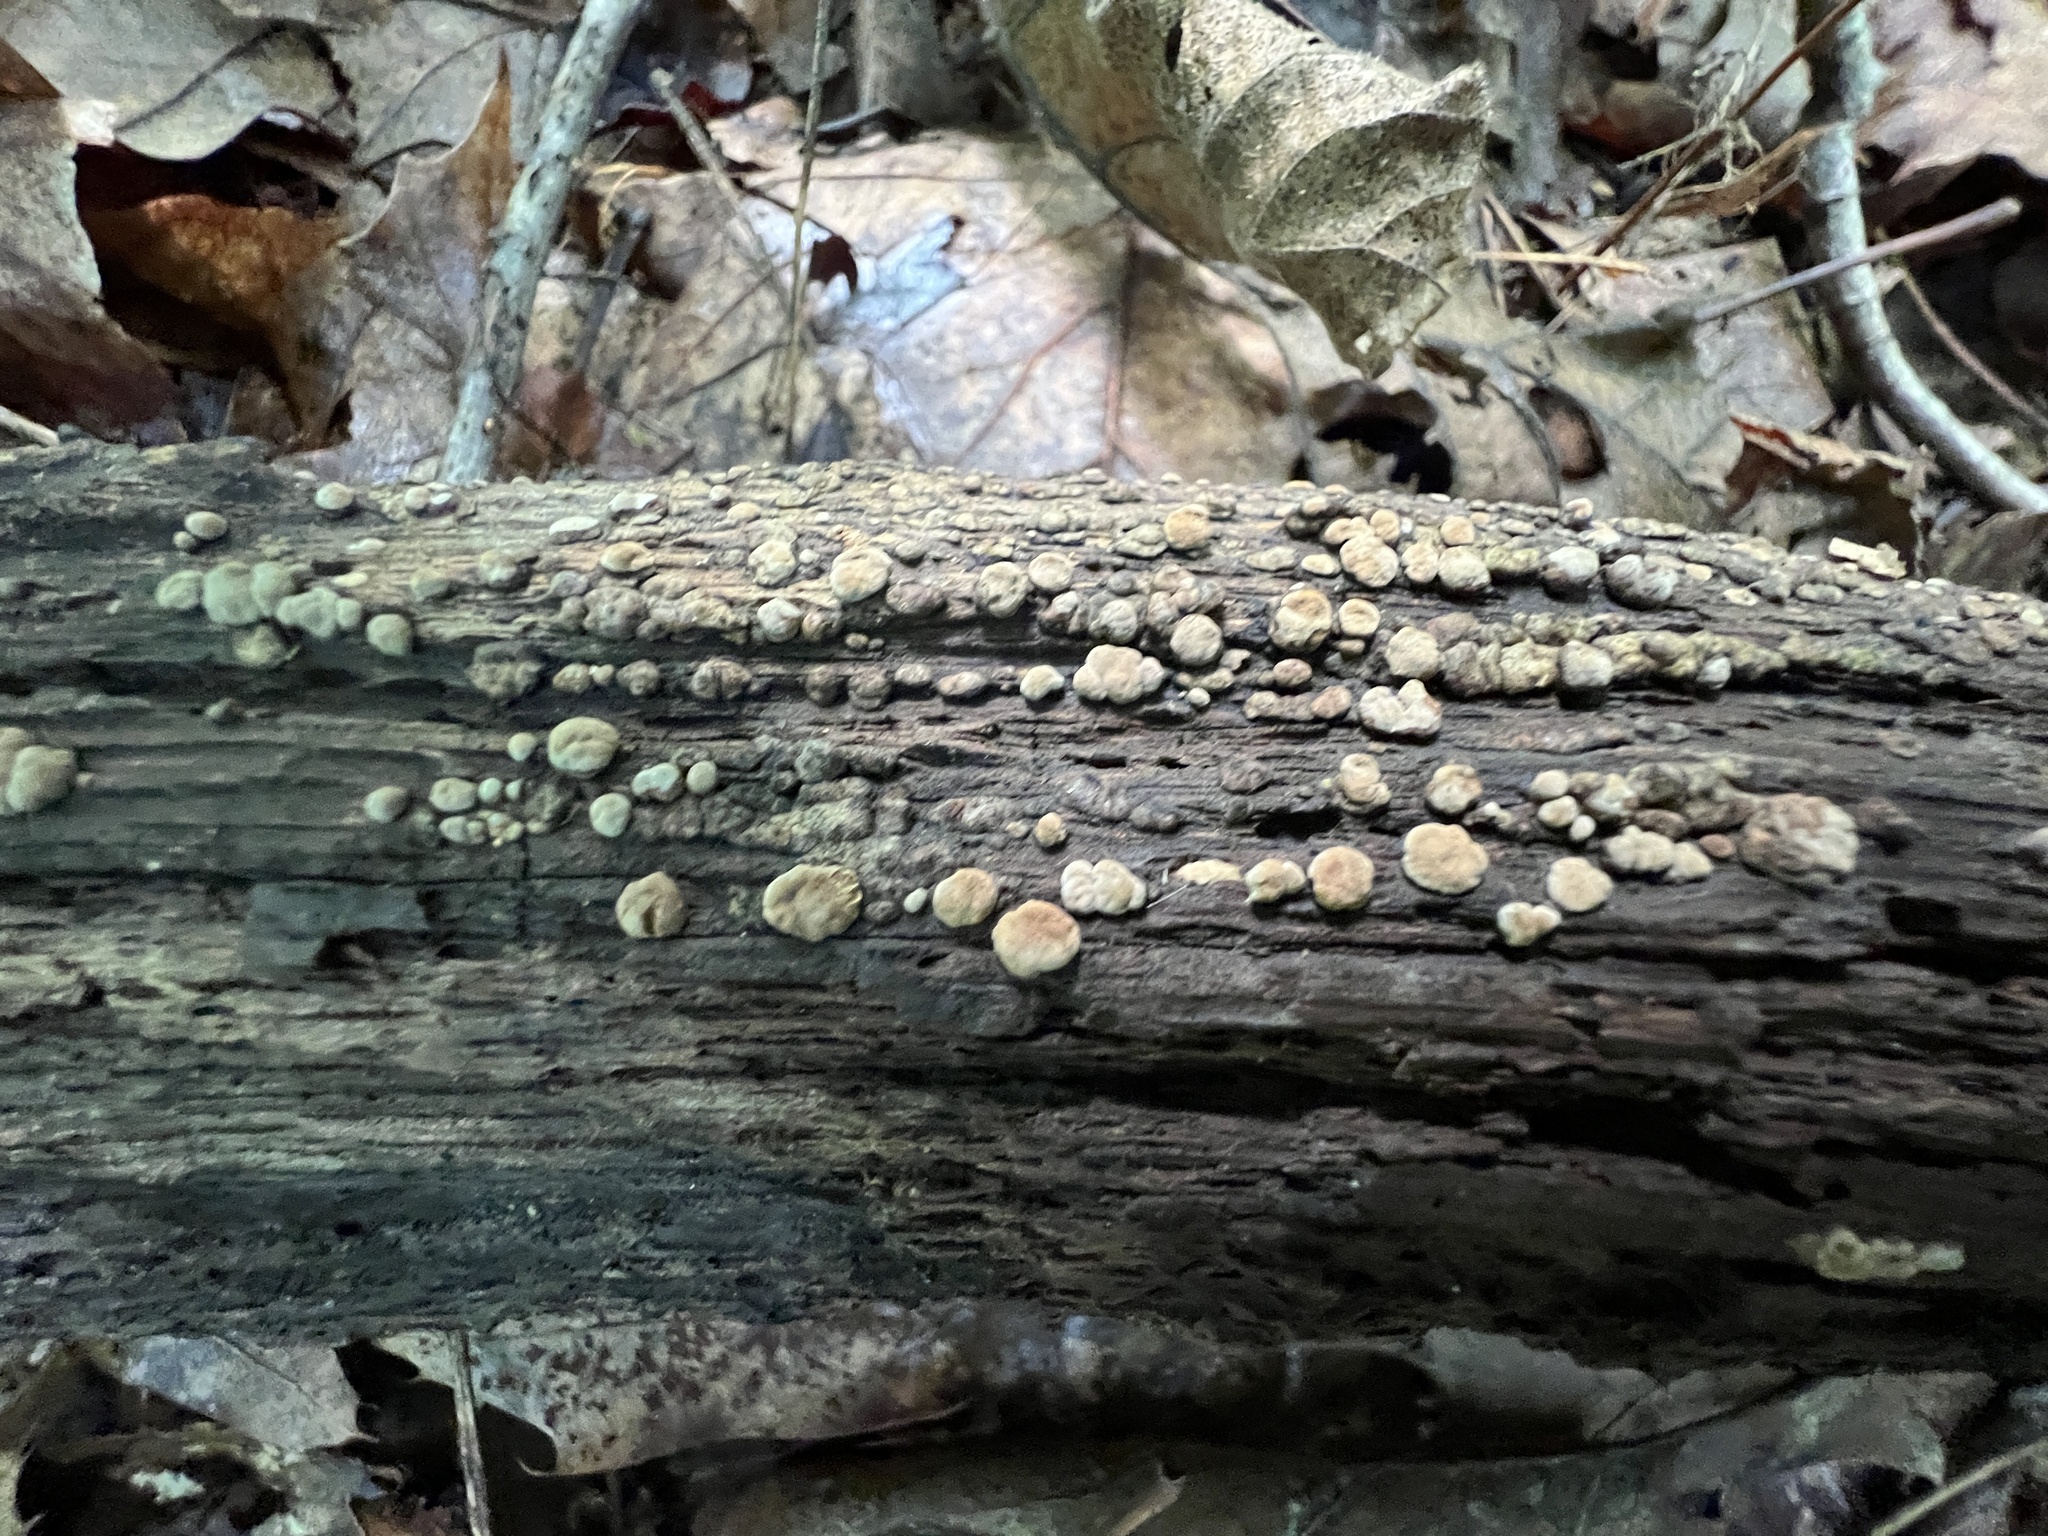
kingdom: Fungi
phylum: Basidiomycota
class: Agaricomycetes
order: Russulales
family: Stereaceae
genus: Xylobolus
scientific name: Xylobolus frustulatus
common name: Ceramic parchment
